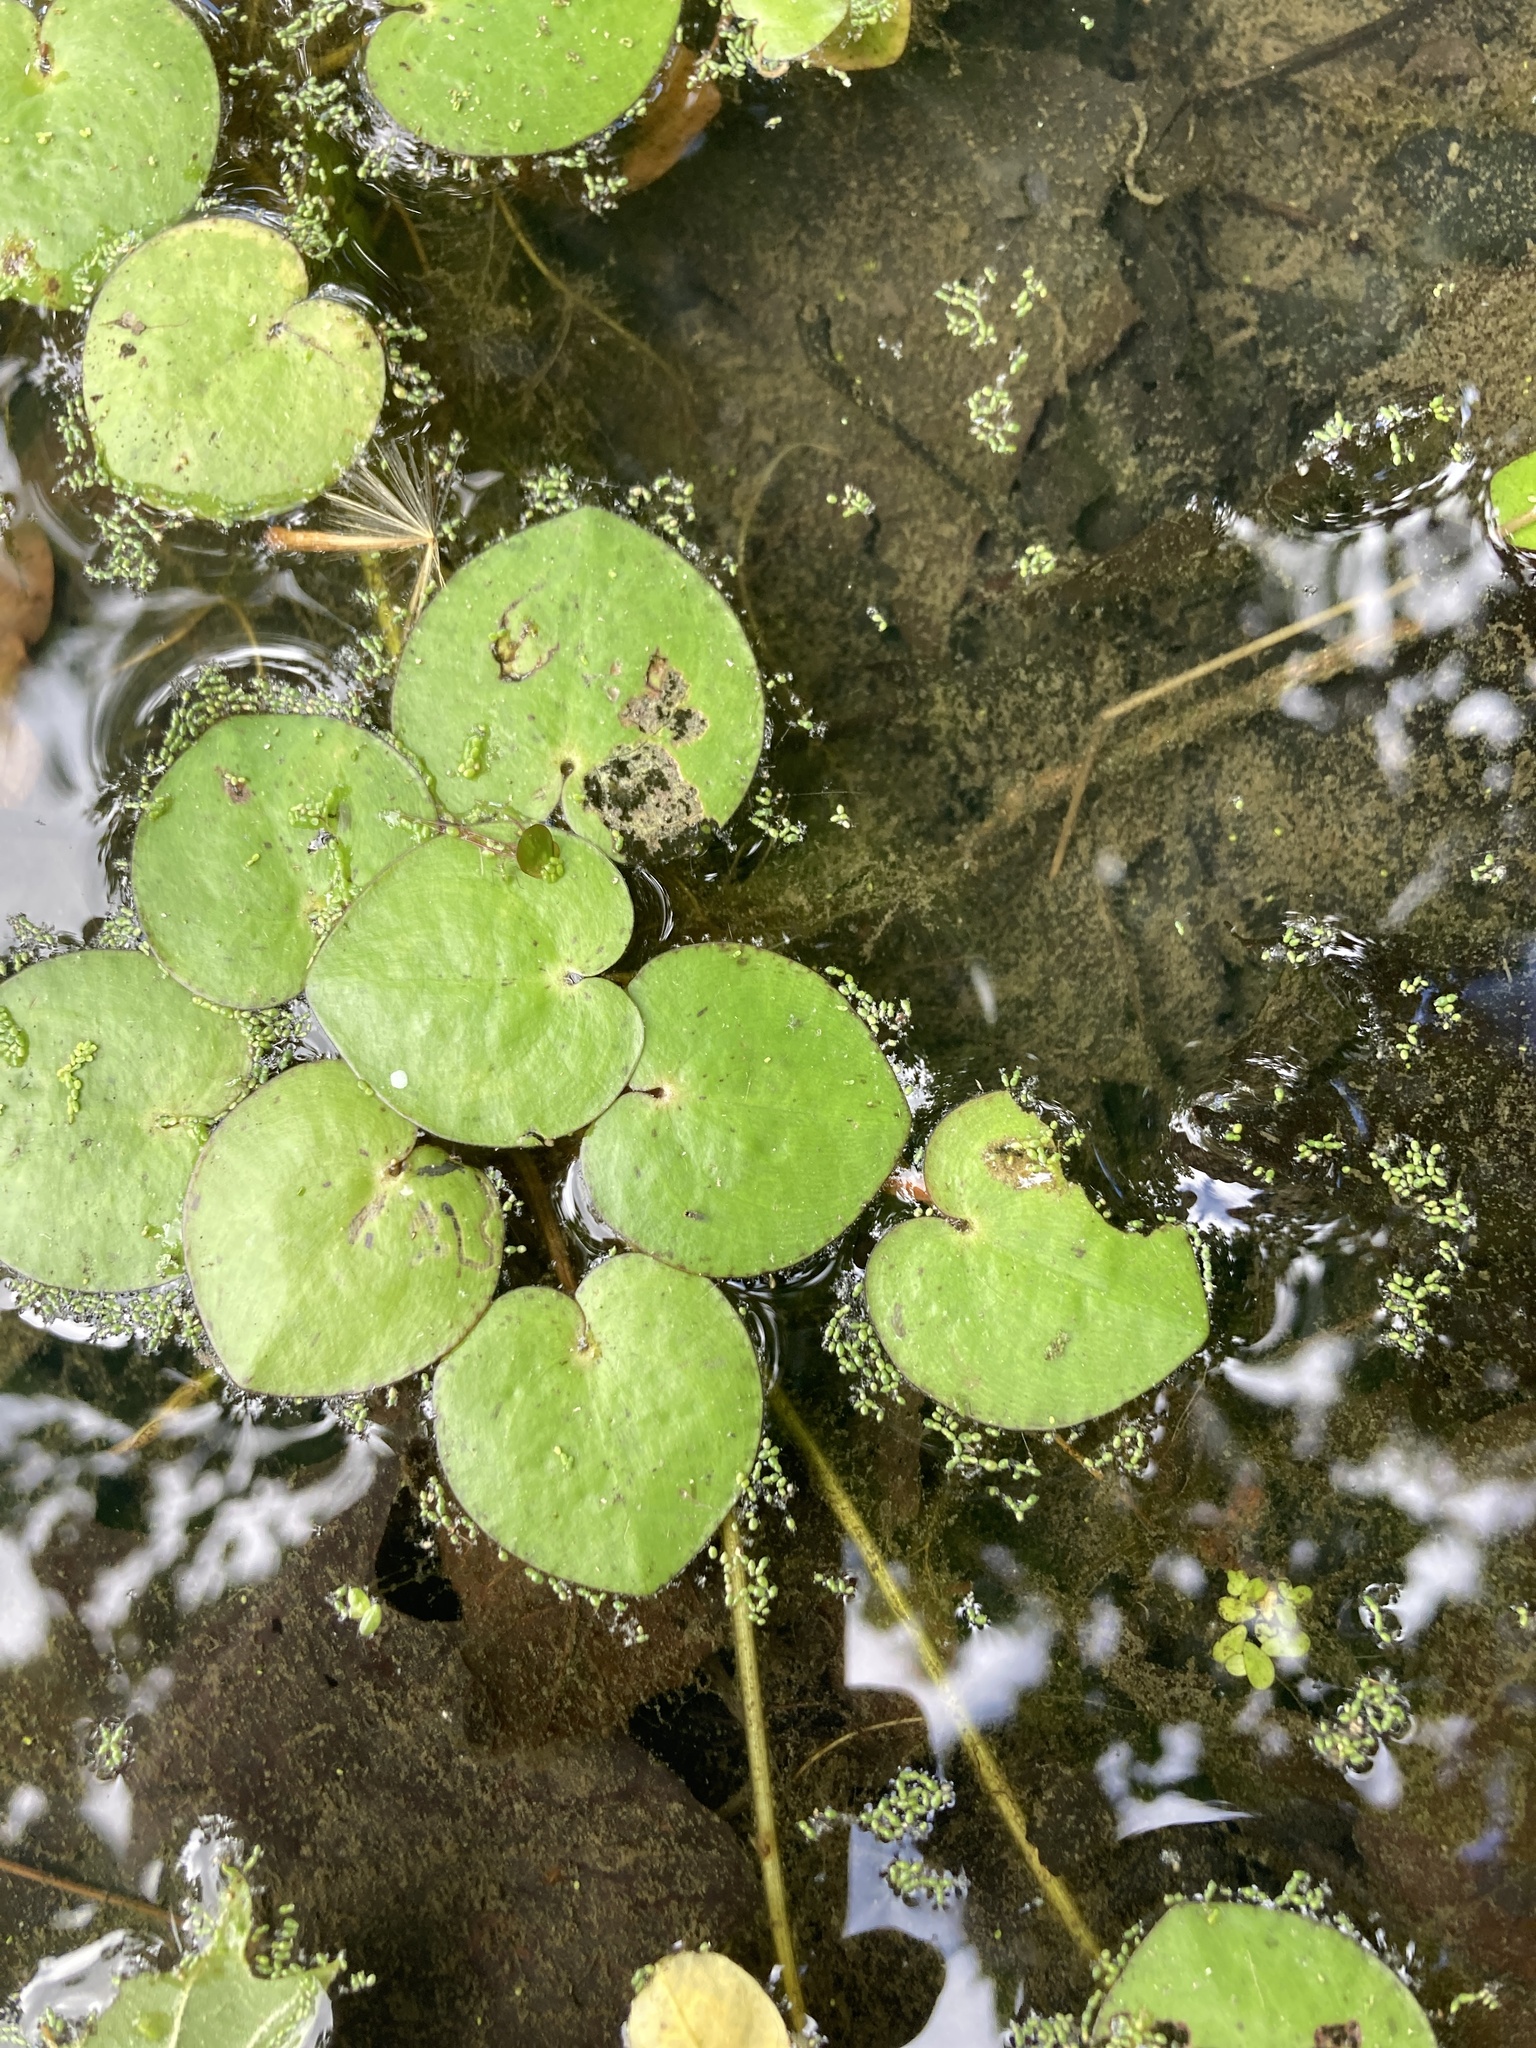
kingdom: Plantae
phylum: Tracheophyta
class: Liliopsida
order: Alismatales
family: Hydrocharitaceae
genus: Hydrocharis
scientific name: Hydrocharis spongia
